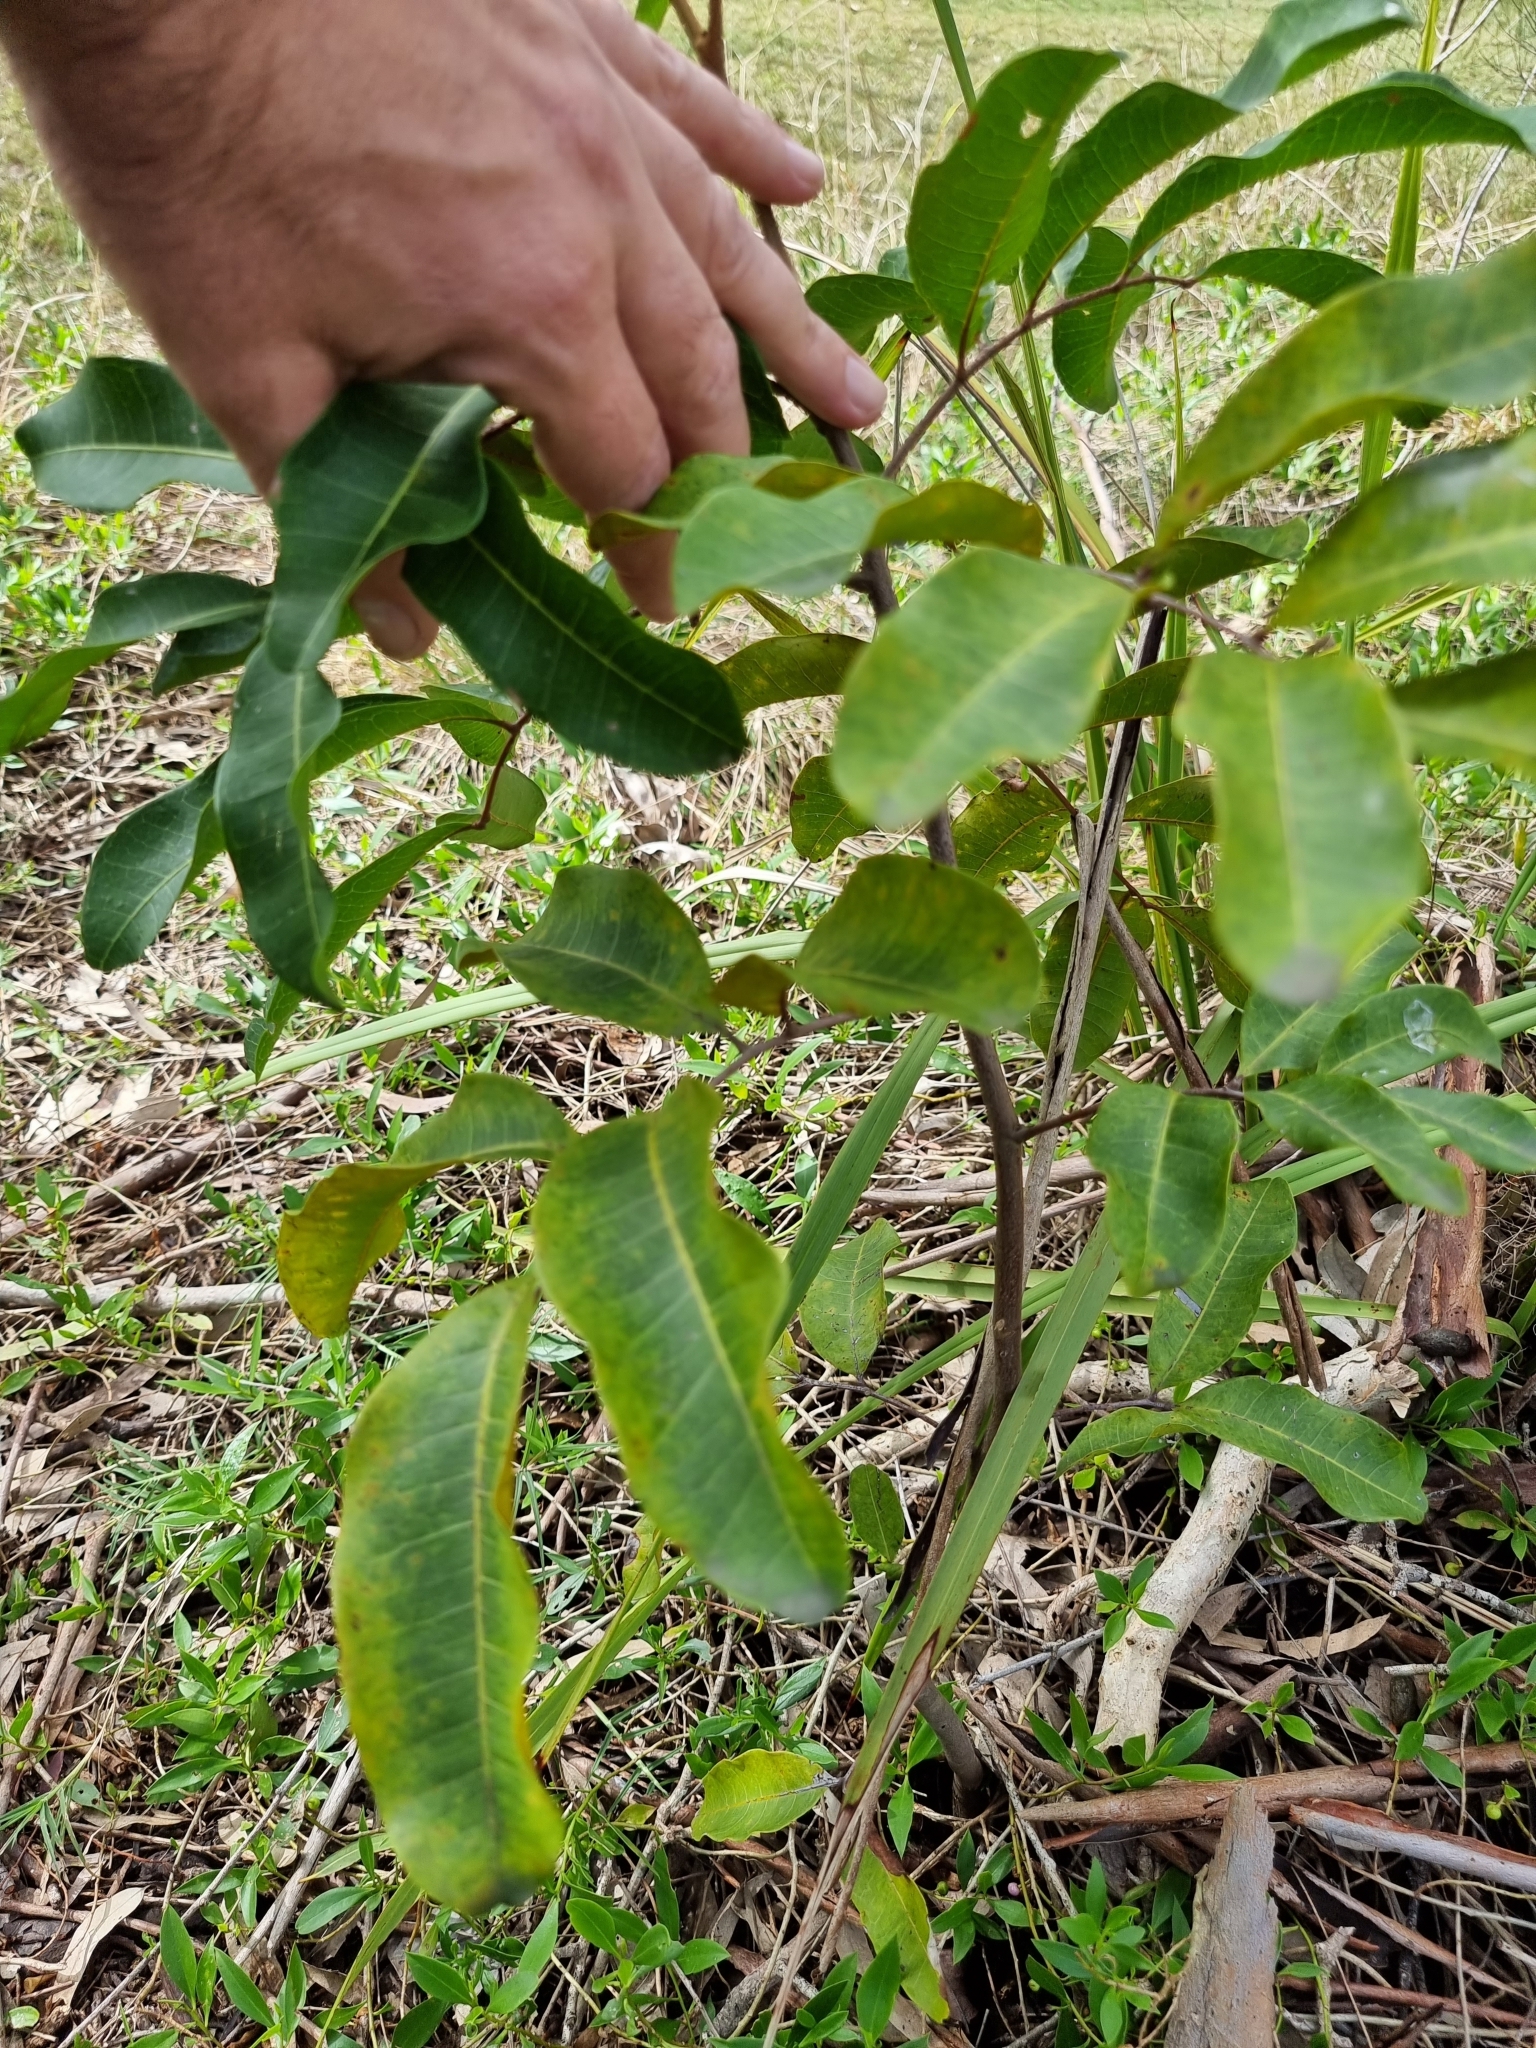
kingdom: Plantae
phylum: Tracheophyta
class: Magnoliopsida
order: Sapindales
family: Sapindaceae
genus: Cupaniopsis
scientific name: Cupaniopsis anacardioides
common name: Carrotwood
